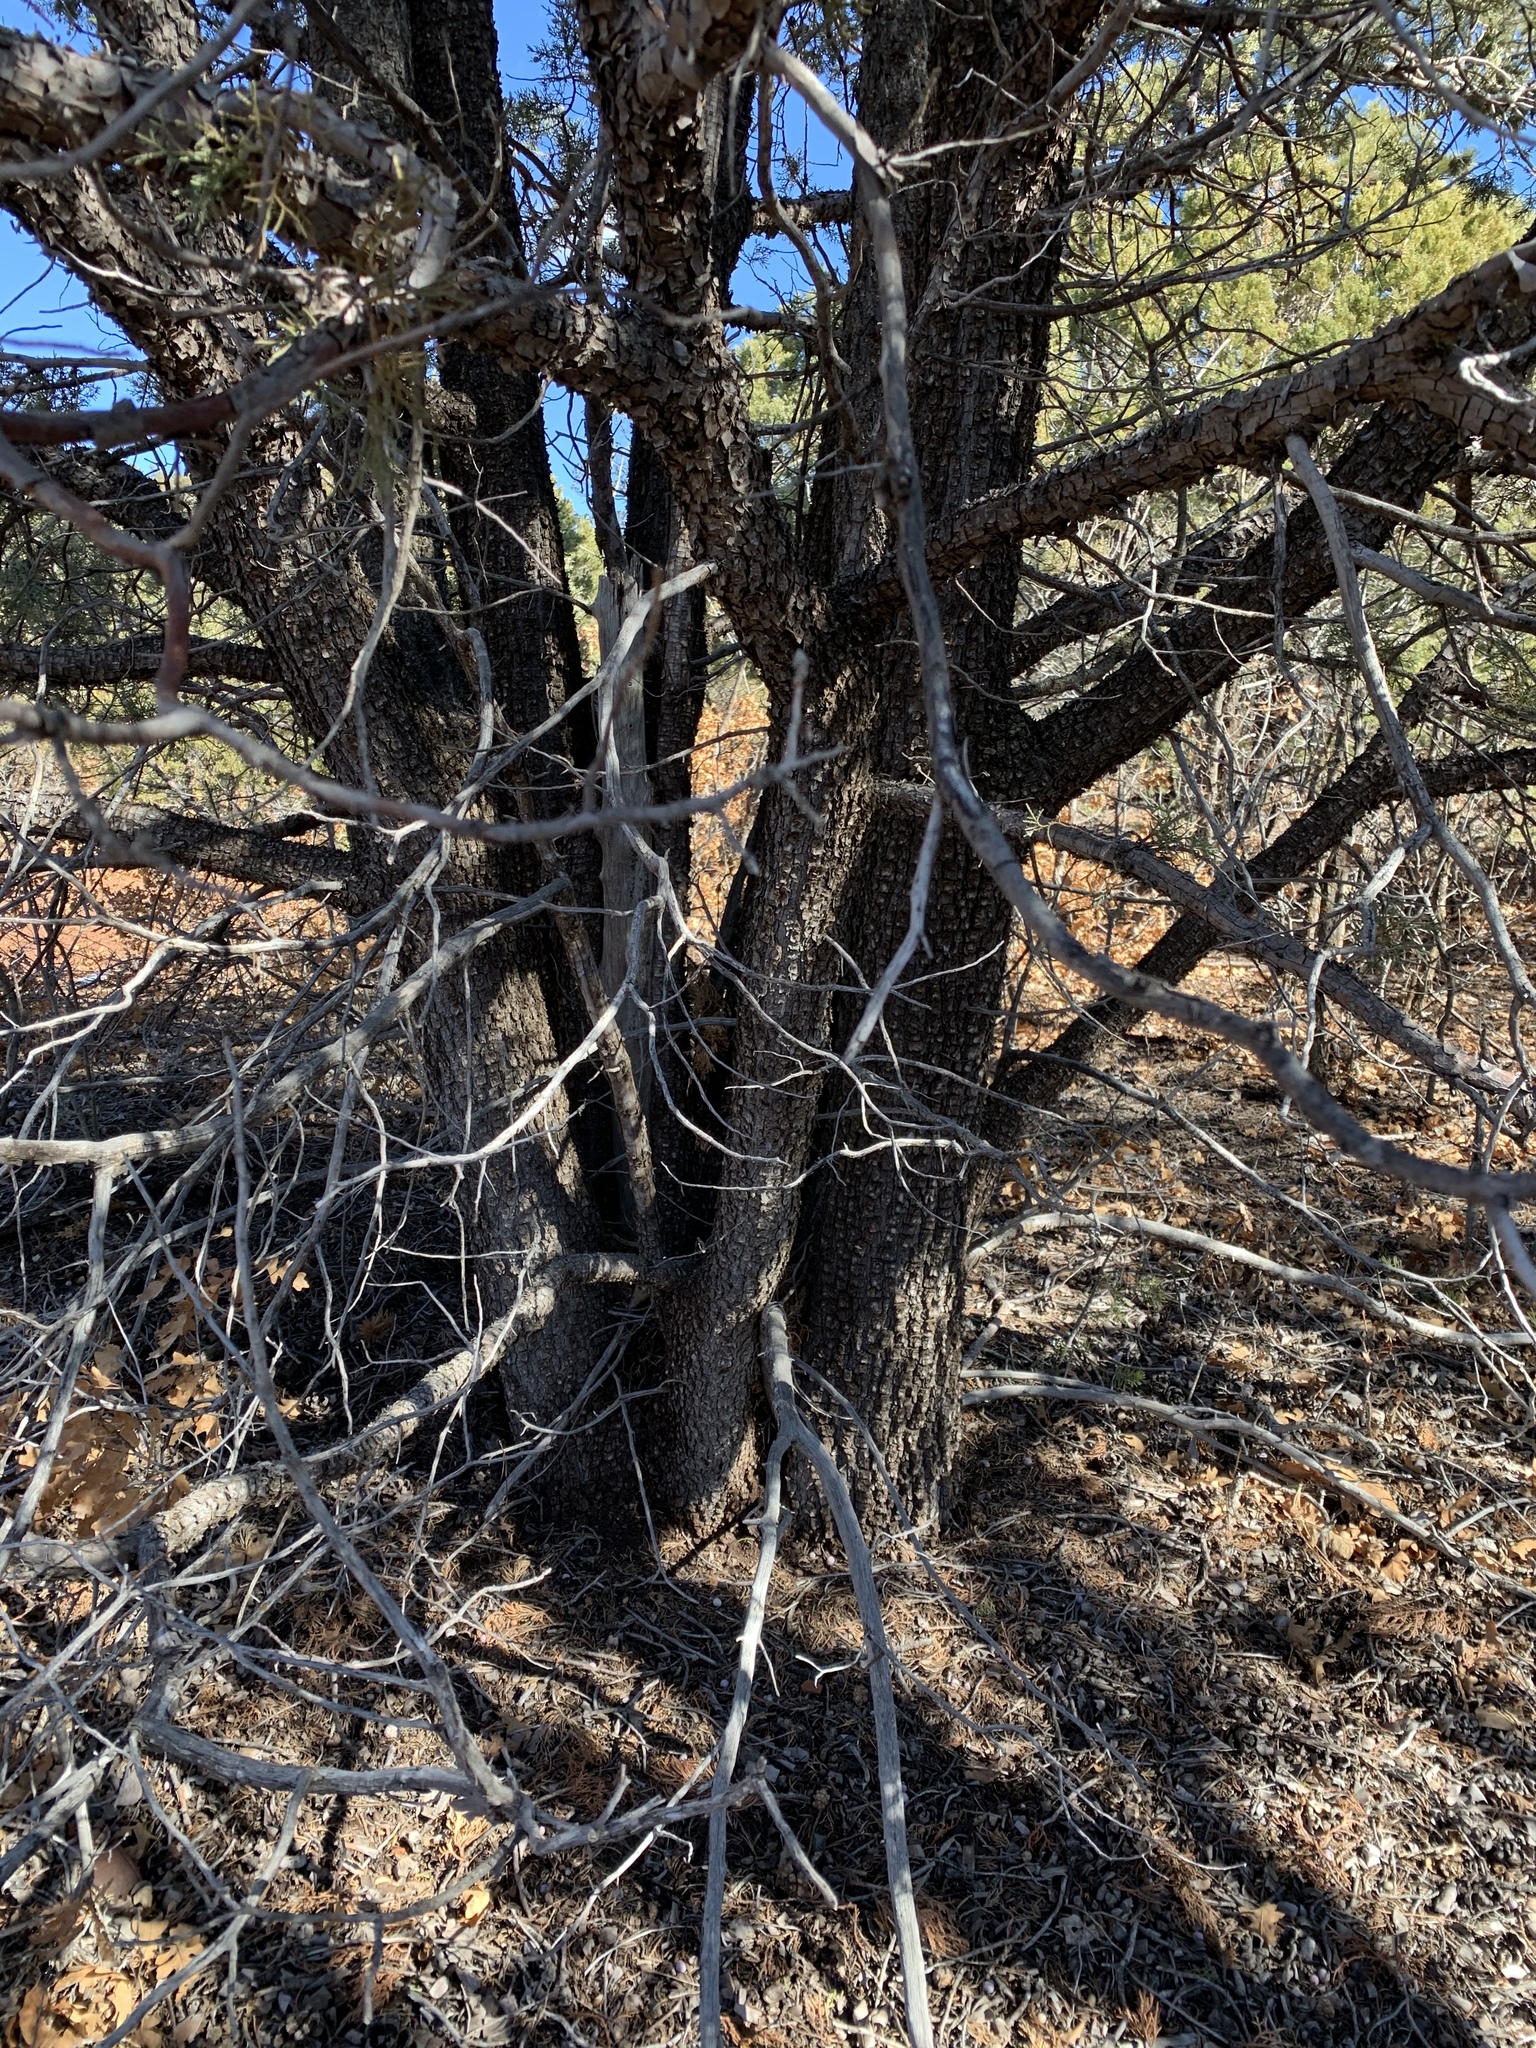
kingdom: Plantae
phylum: Tracheophyta
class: Pinopsida
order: Pinales
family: Cupressaceae
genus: Juniperus
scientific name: Juniperus deppeana
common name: Alligator juniper
